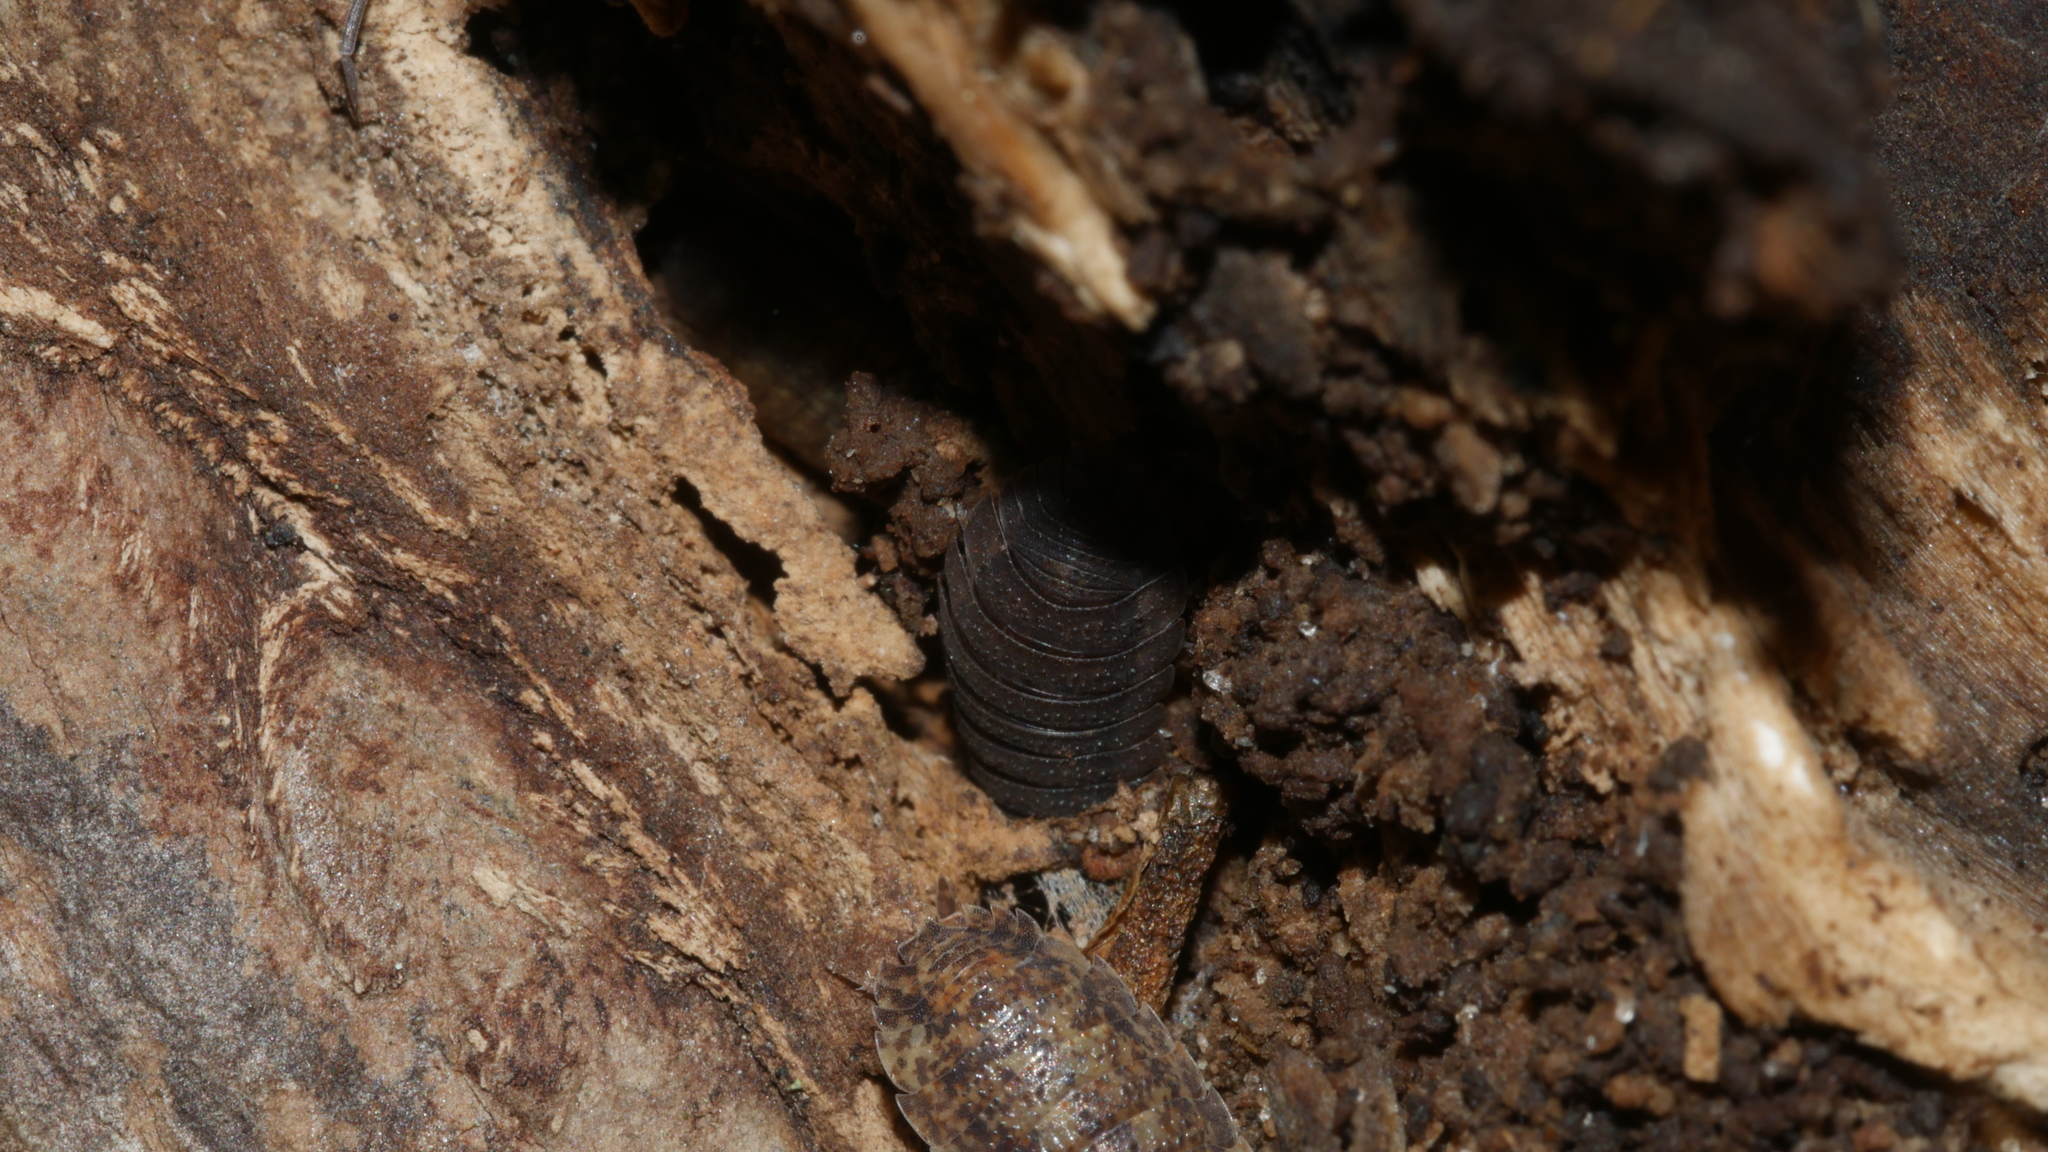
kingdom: Animalia
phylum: Arthropoda
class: Malacostraca
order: Isopoda
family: Porcellionidae
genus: Porcellio
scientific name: Porcellio scaber
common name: Common rough woodlouse
